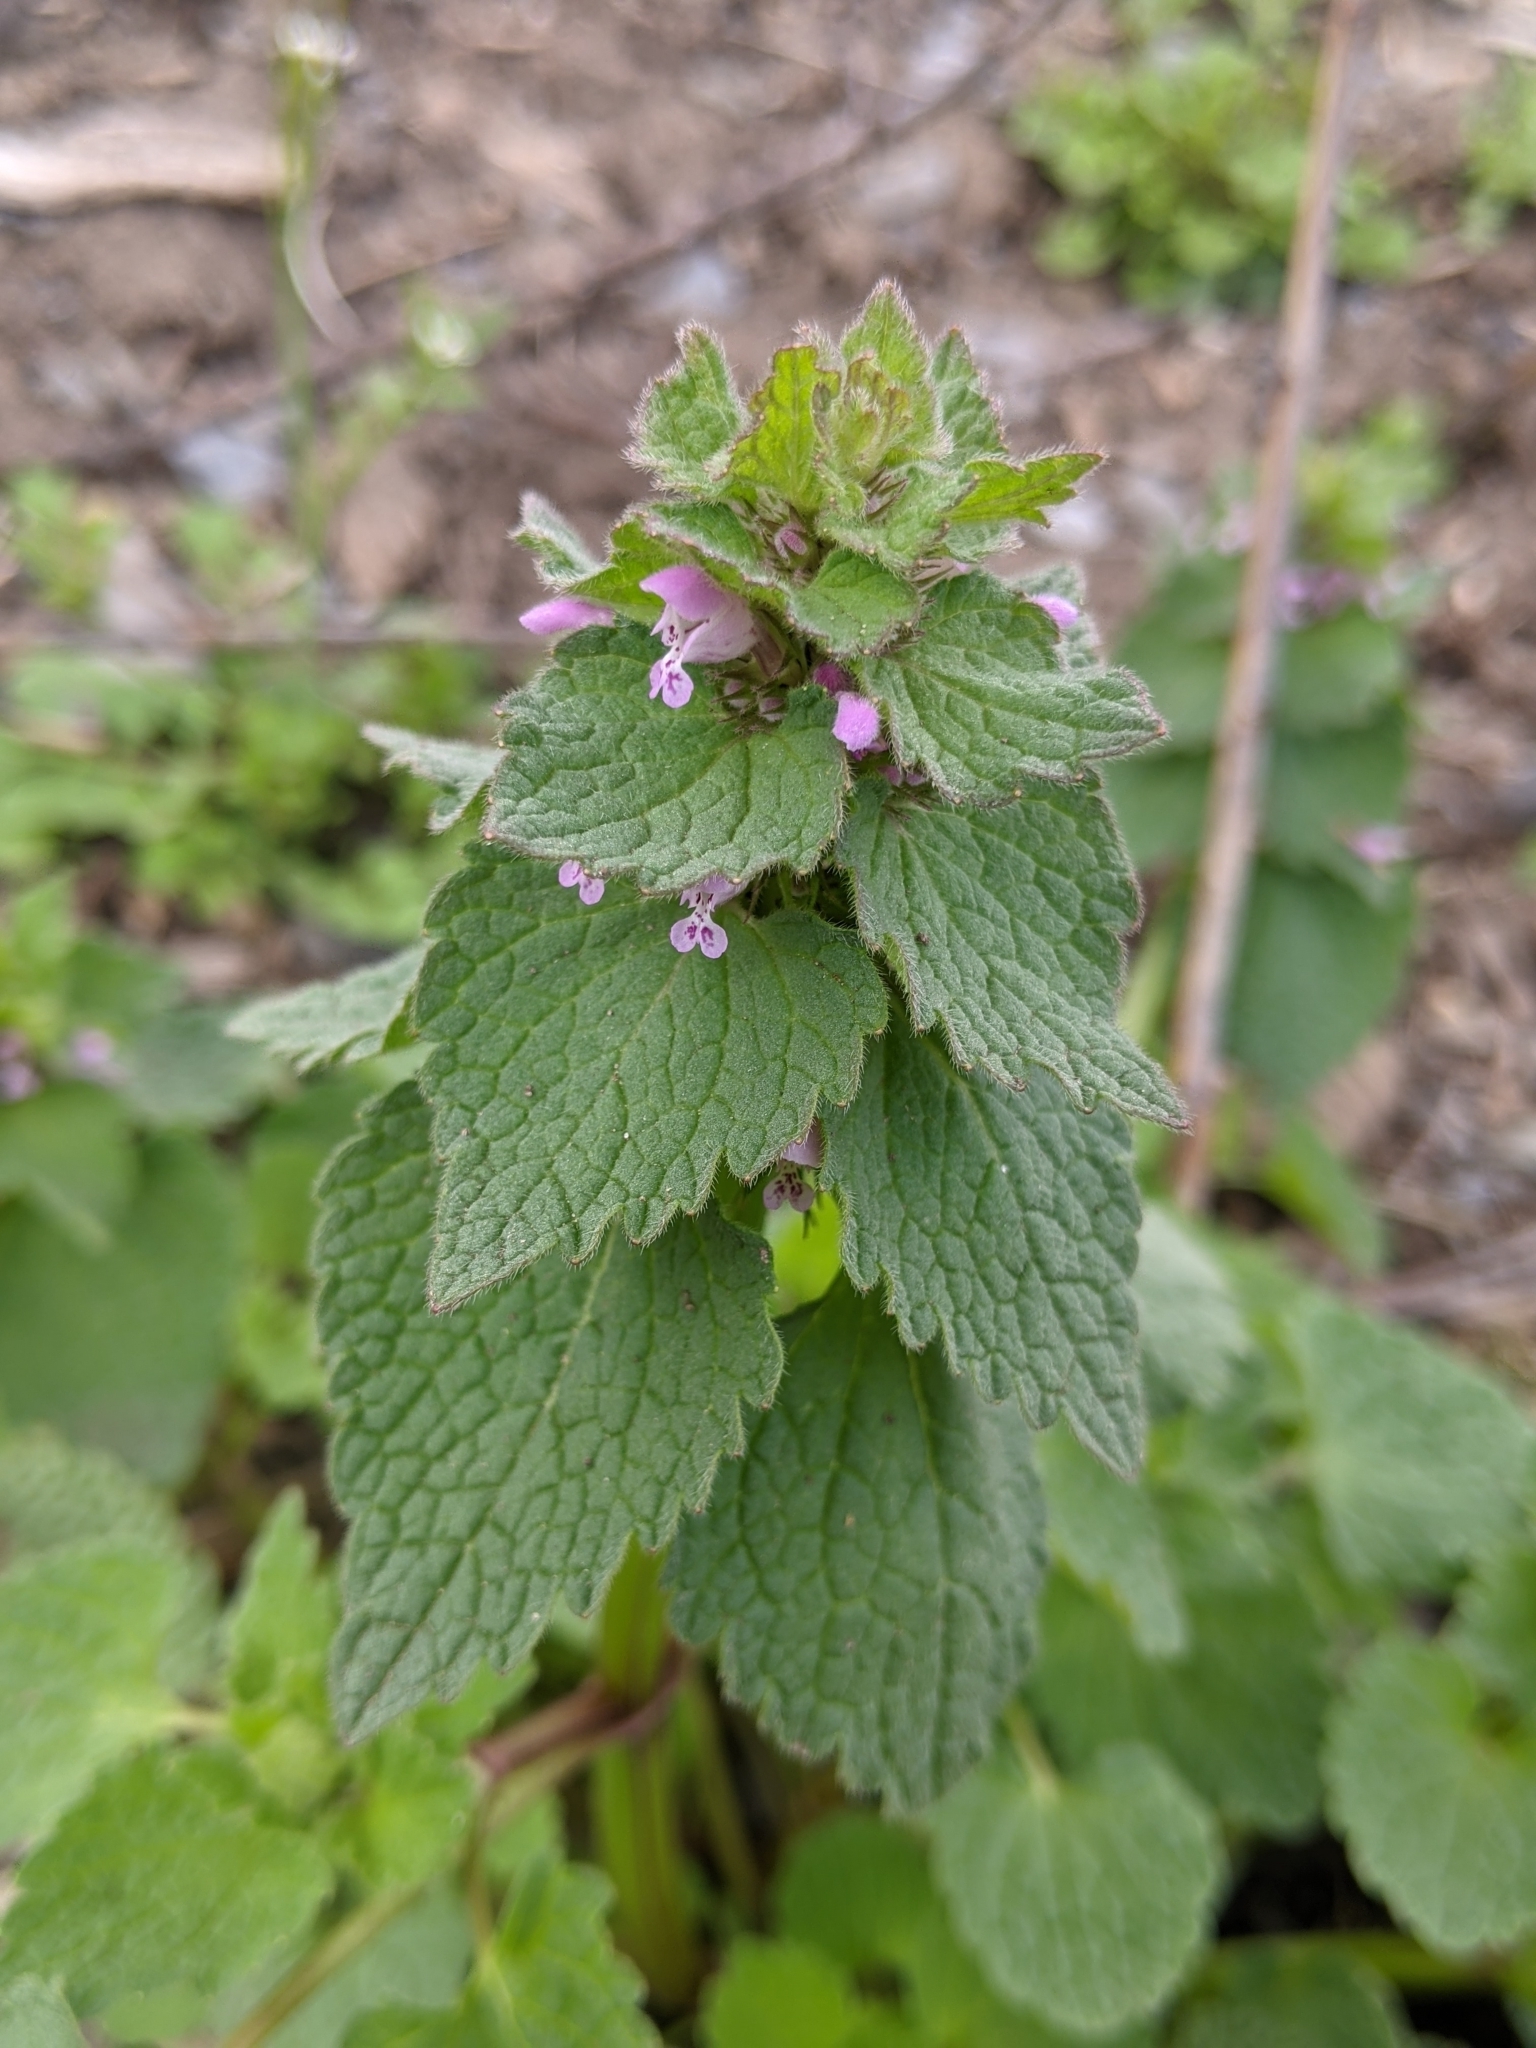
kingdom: Plantae
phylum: Tracheophyta
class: Magnoliopsida
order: Lamiales
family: Lamiaceae
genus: Lamium
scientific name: Lamium purpureum
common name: Red dead-nettle
